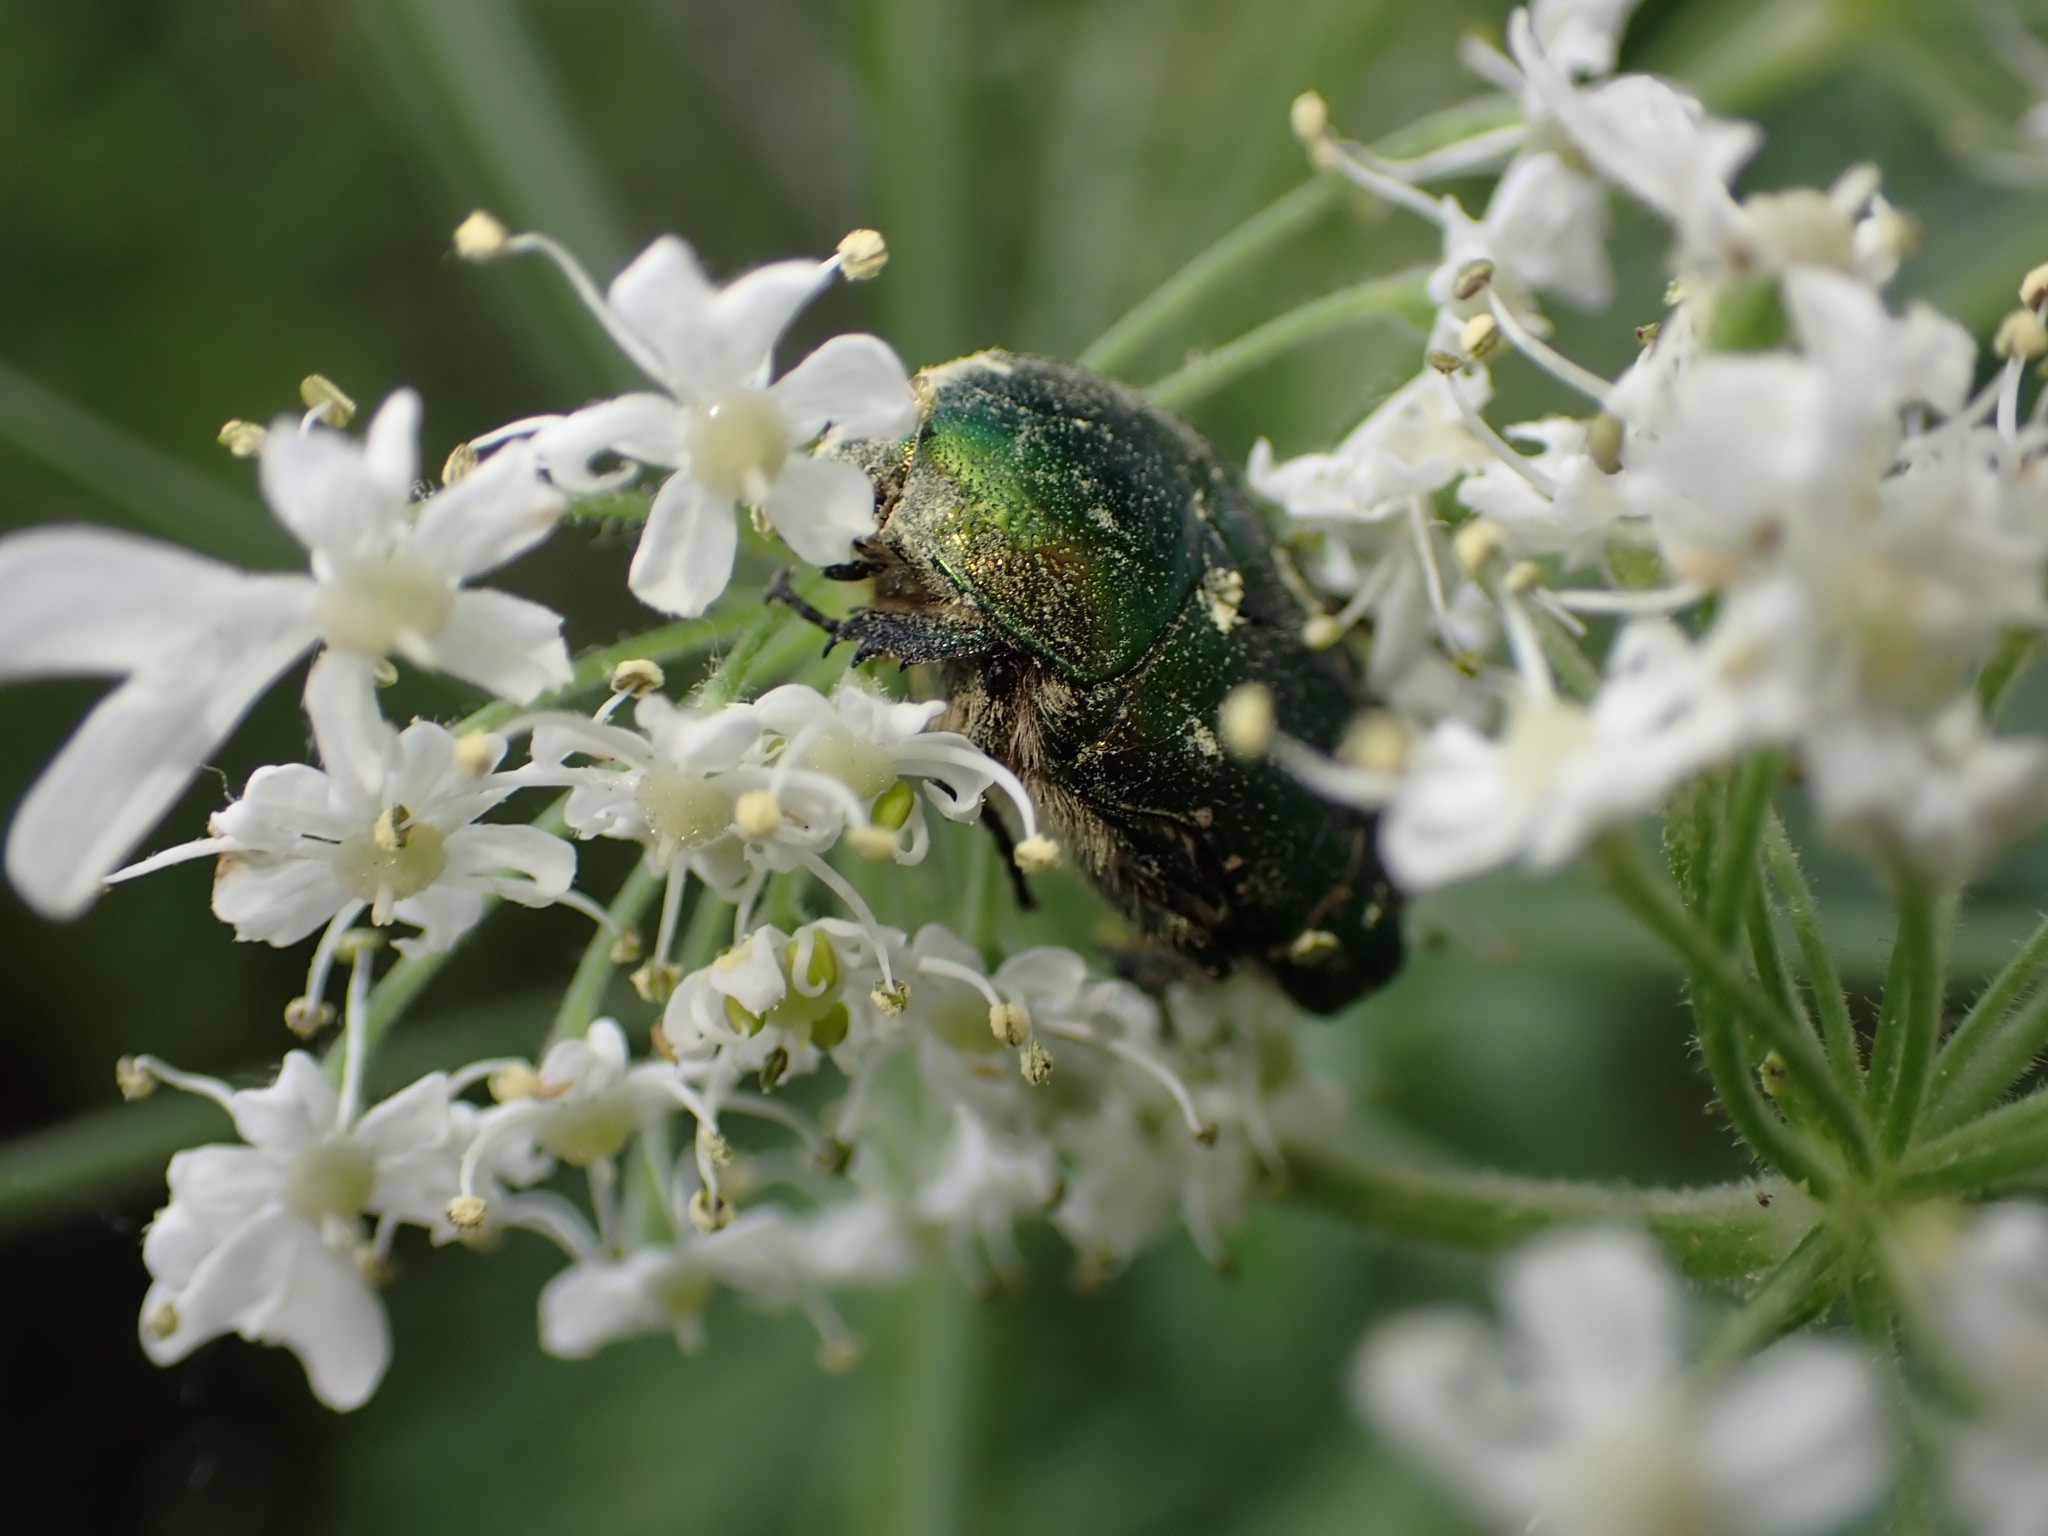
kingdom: Animalia
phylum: Arthropoda
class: Insecta
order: Coleoptera
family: Scarabaeidae
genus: Cetonia
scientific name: Cetonia aurata
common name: Rose chafer
